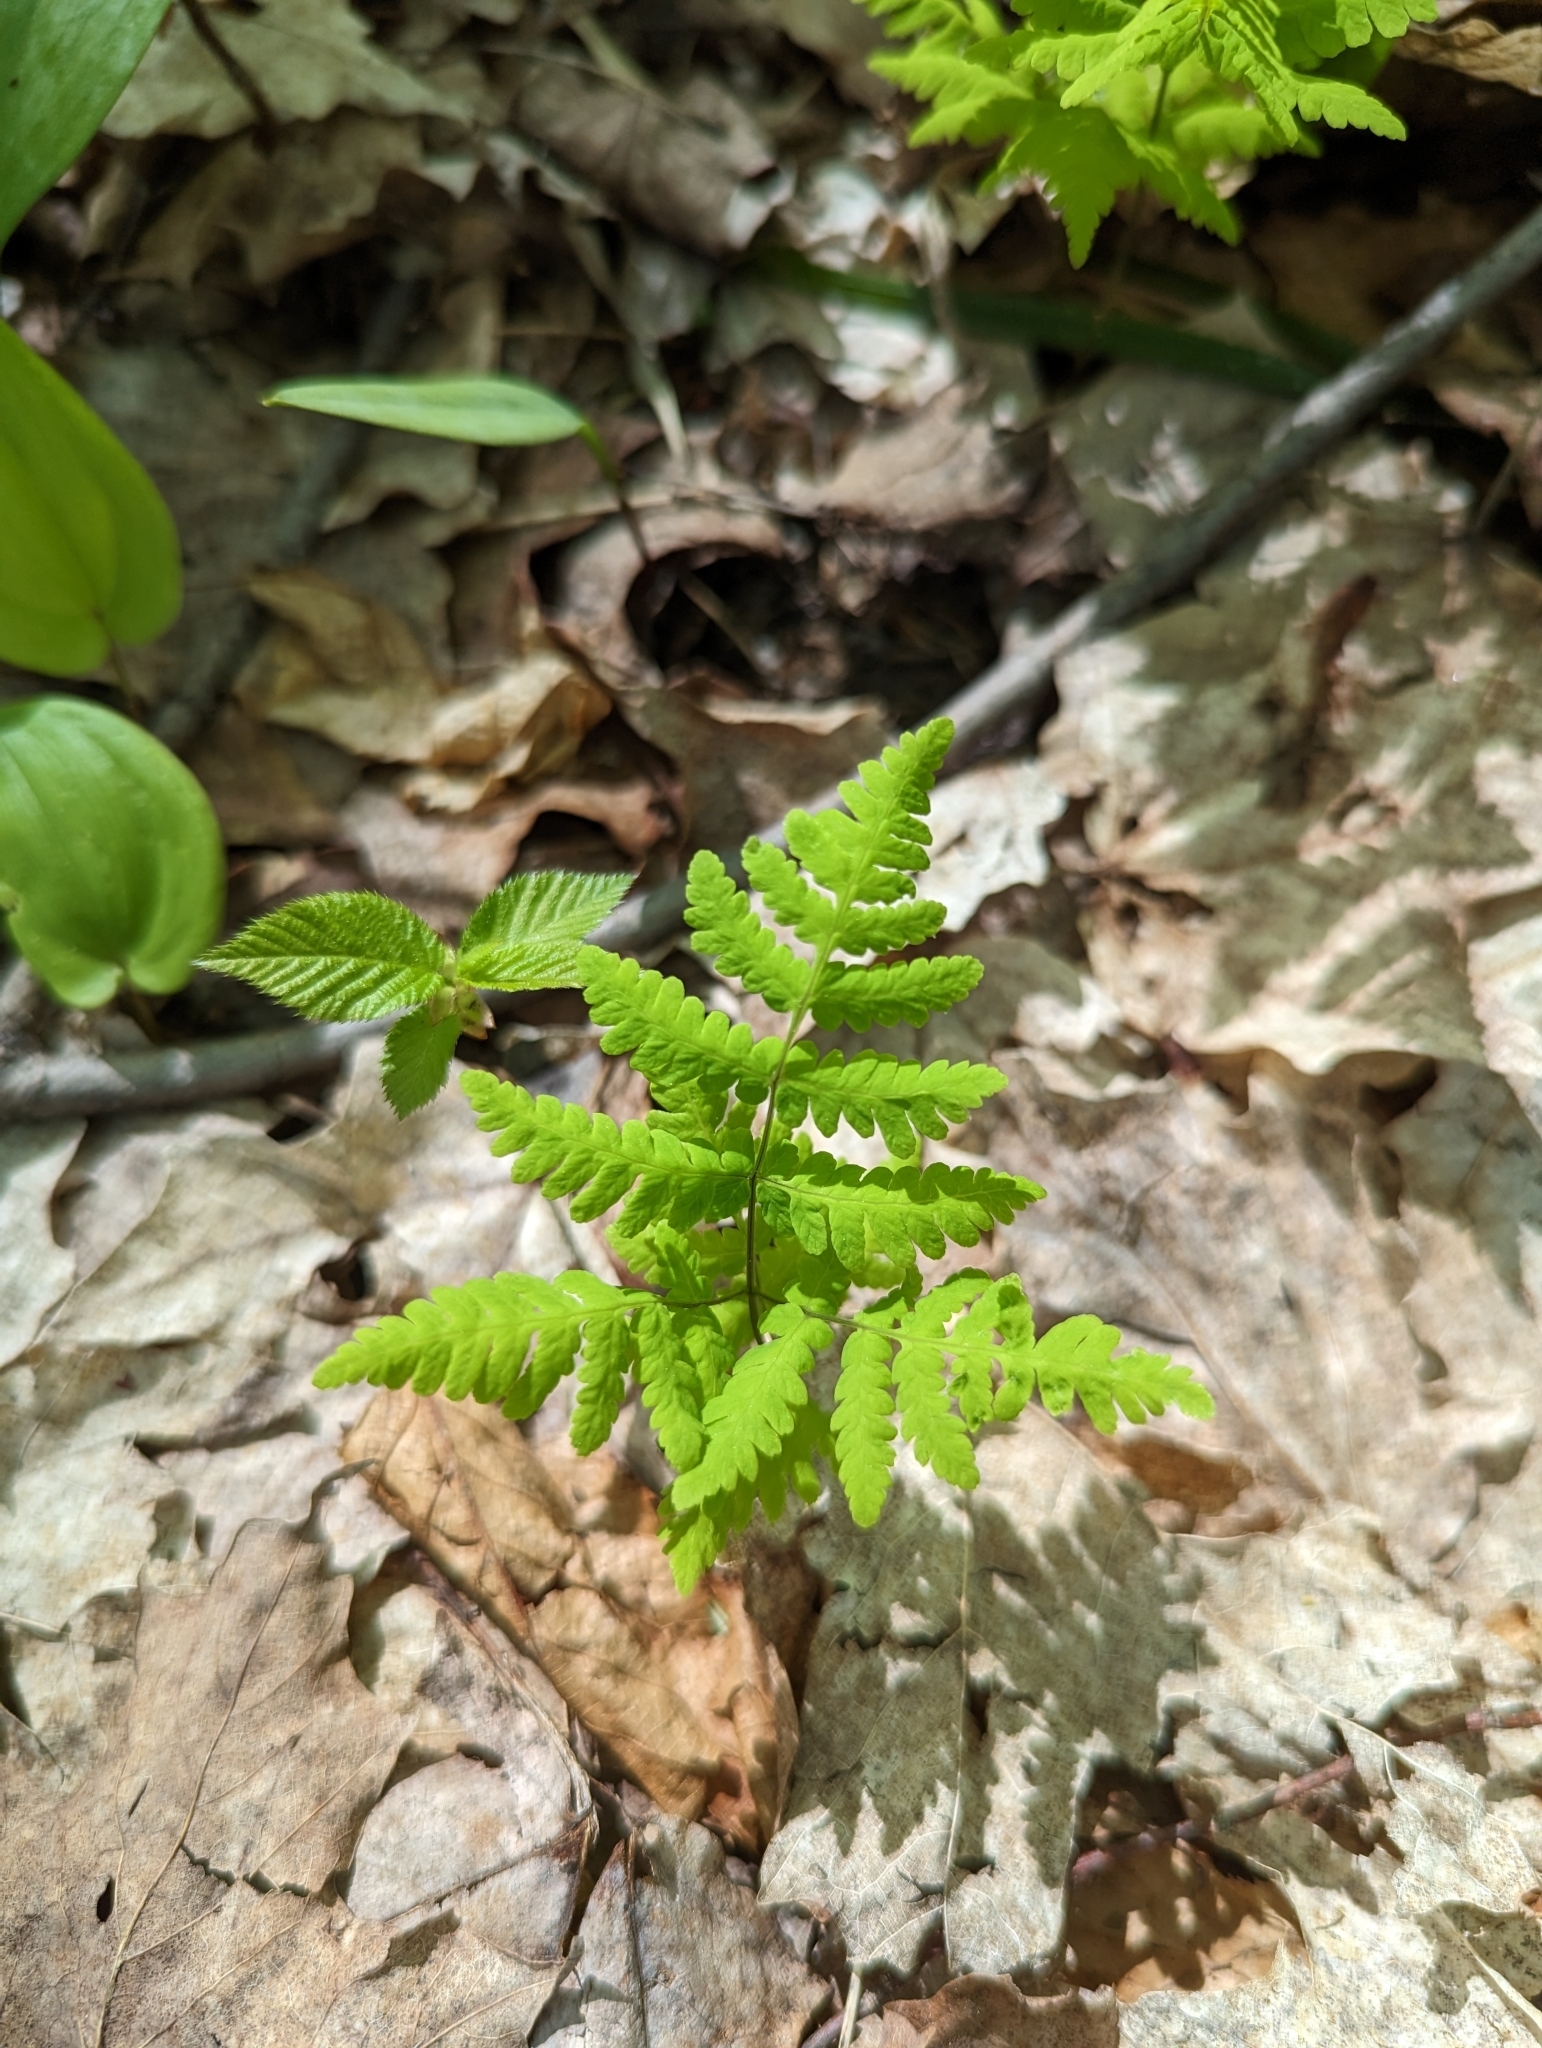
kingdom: Plantae
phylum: Tracheophyta
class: Polypodiopsida
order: Polypodiales
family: Cystopteridaceae
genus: Gymnocarpium
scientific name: Gymnocarpium dryopteris
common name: Oak fern
